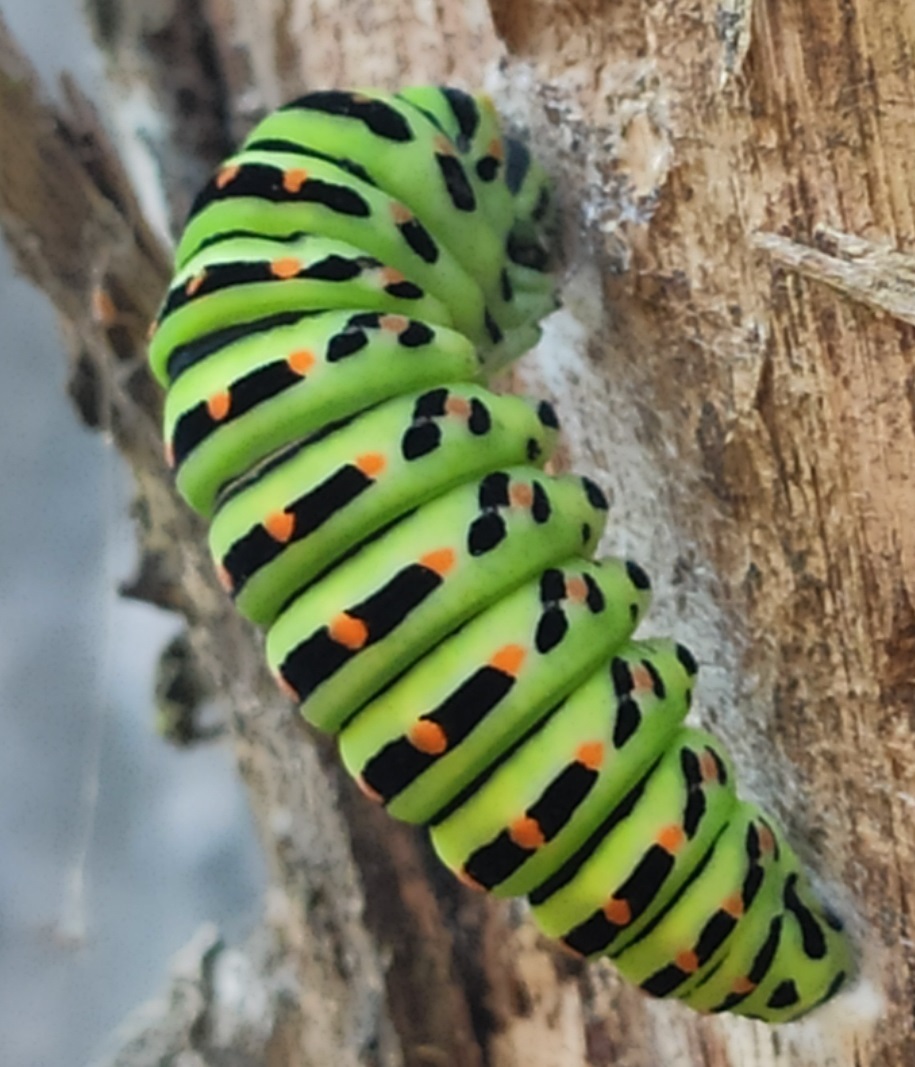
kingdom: Animalia
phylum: Arthropoda
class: Insecta
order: Lepidoptera
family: Papilionidae
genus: Papilio
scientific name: Papilio machaon
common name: Swallowtail
